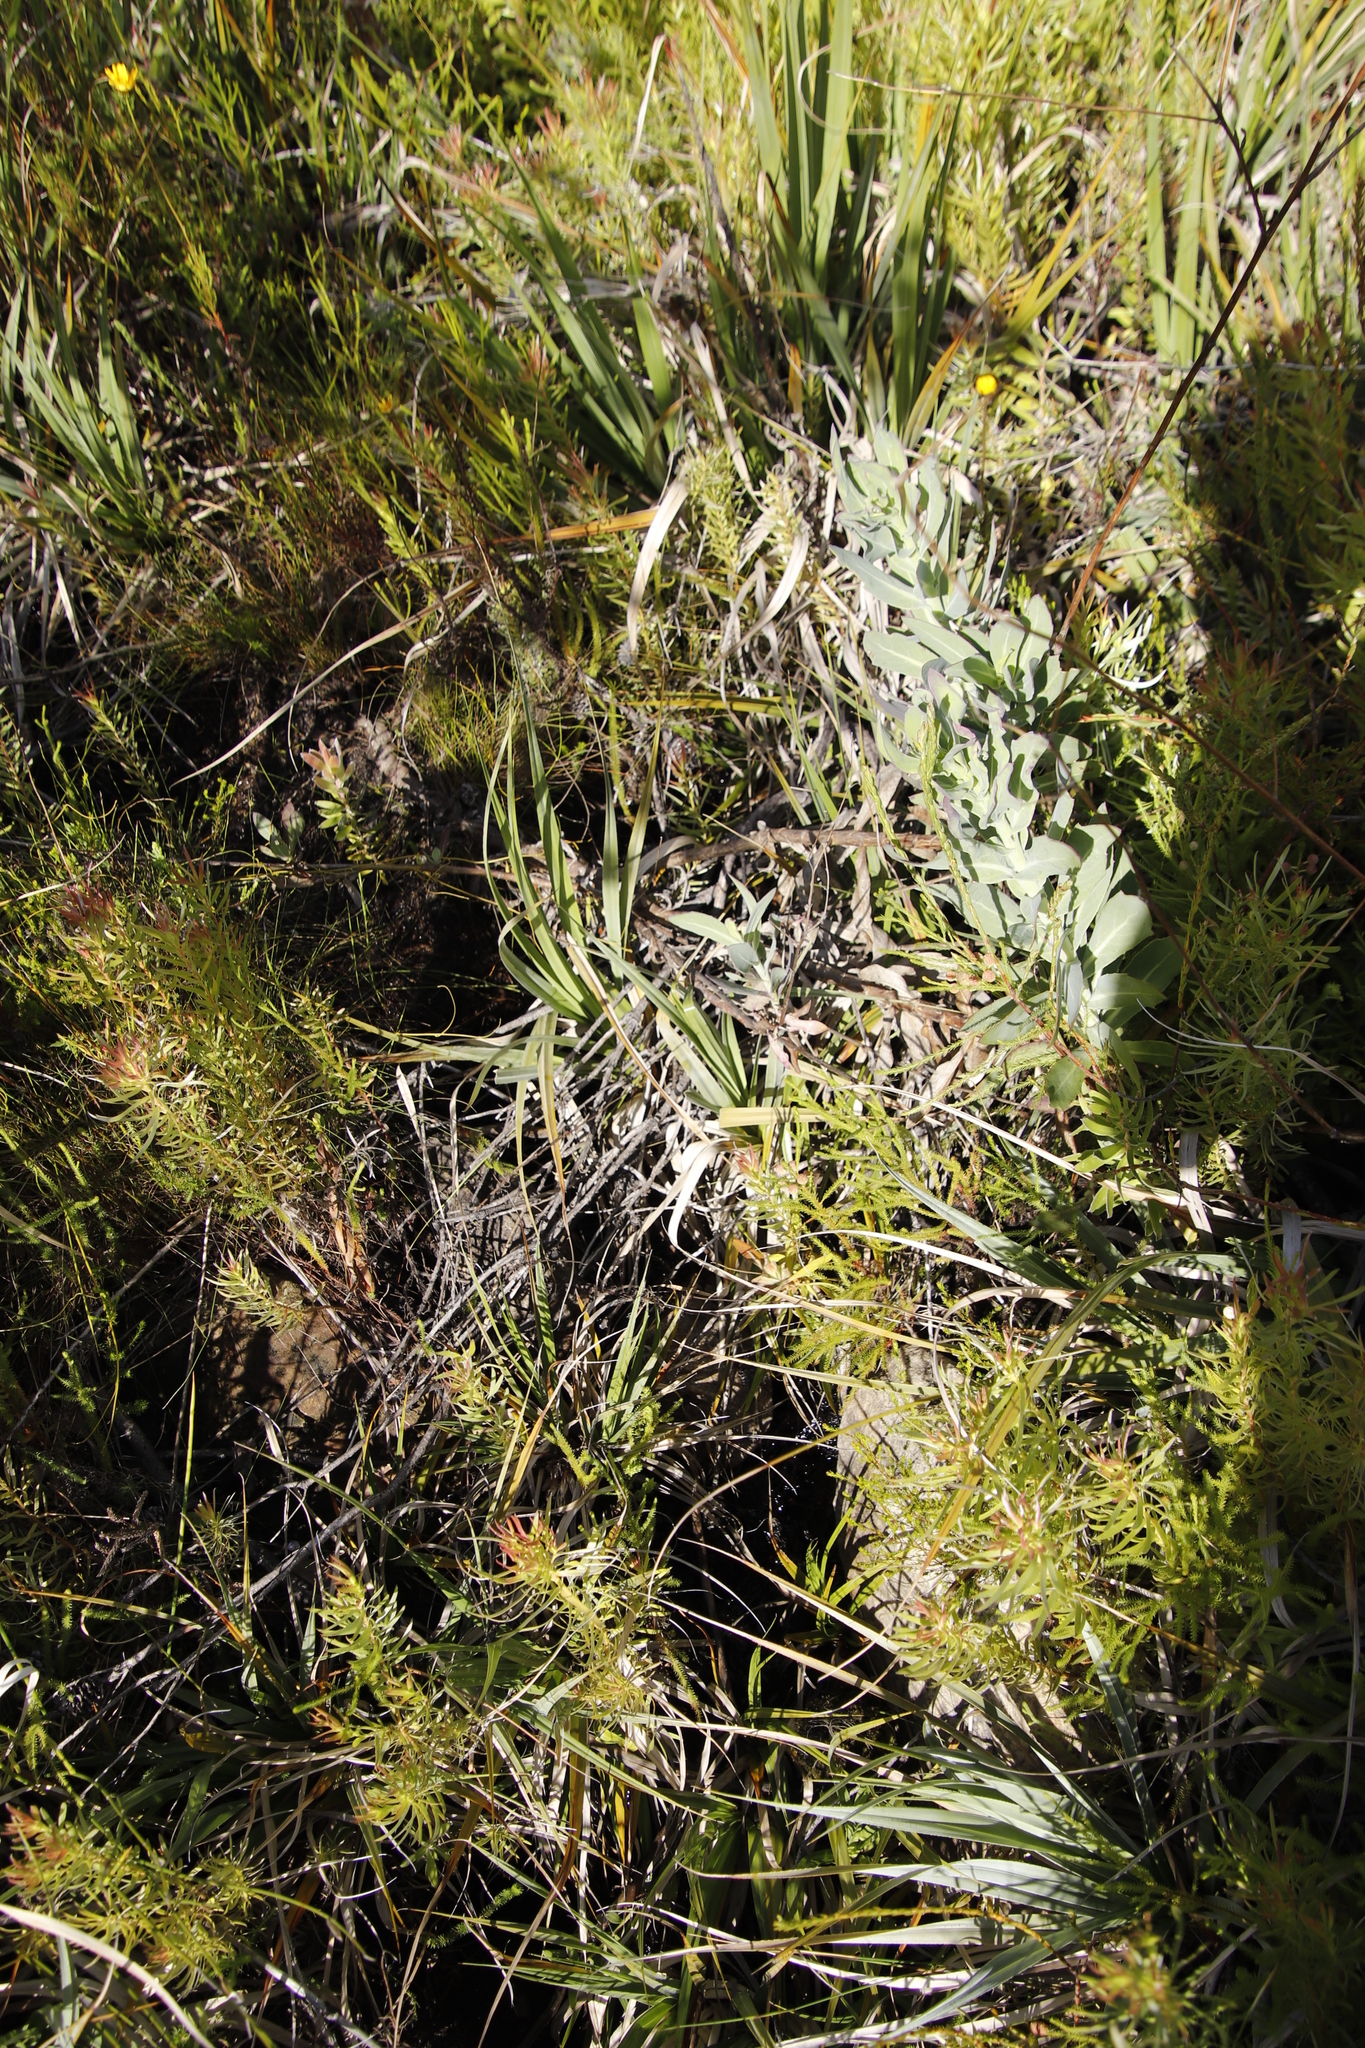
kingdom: Plantae
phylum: Tracheophyta
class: Magnoliopsida
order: Proteales
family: Proteaceae
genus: Leucadendron
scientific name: Leucadendron xanthoconus
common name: Sickle-leaf conebush
